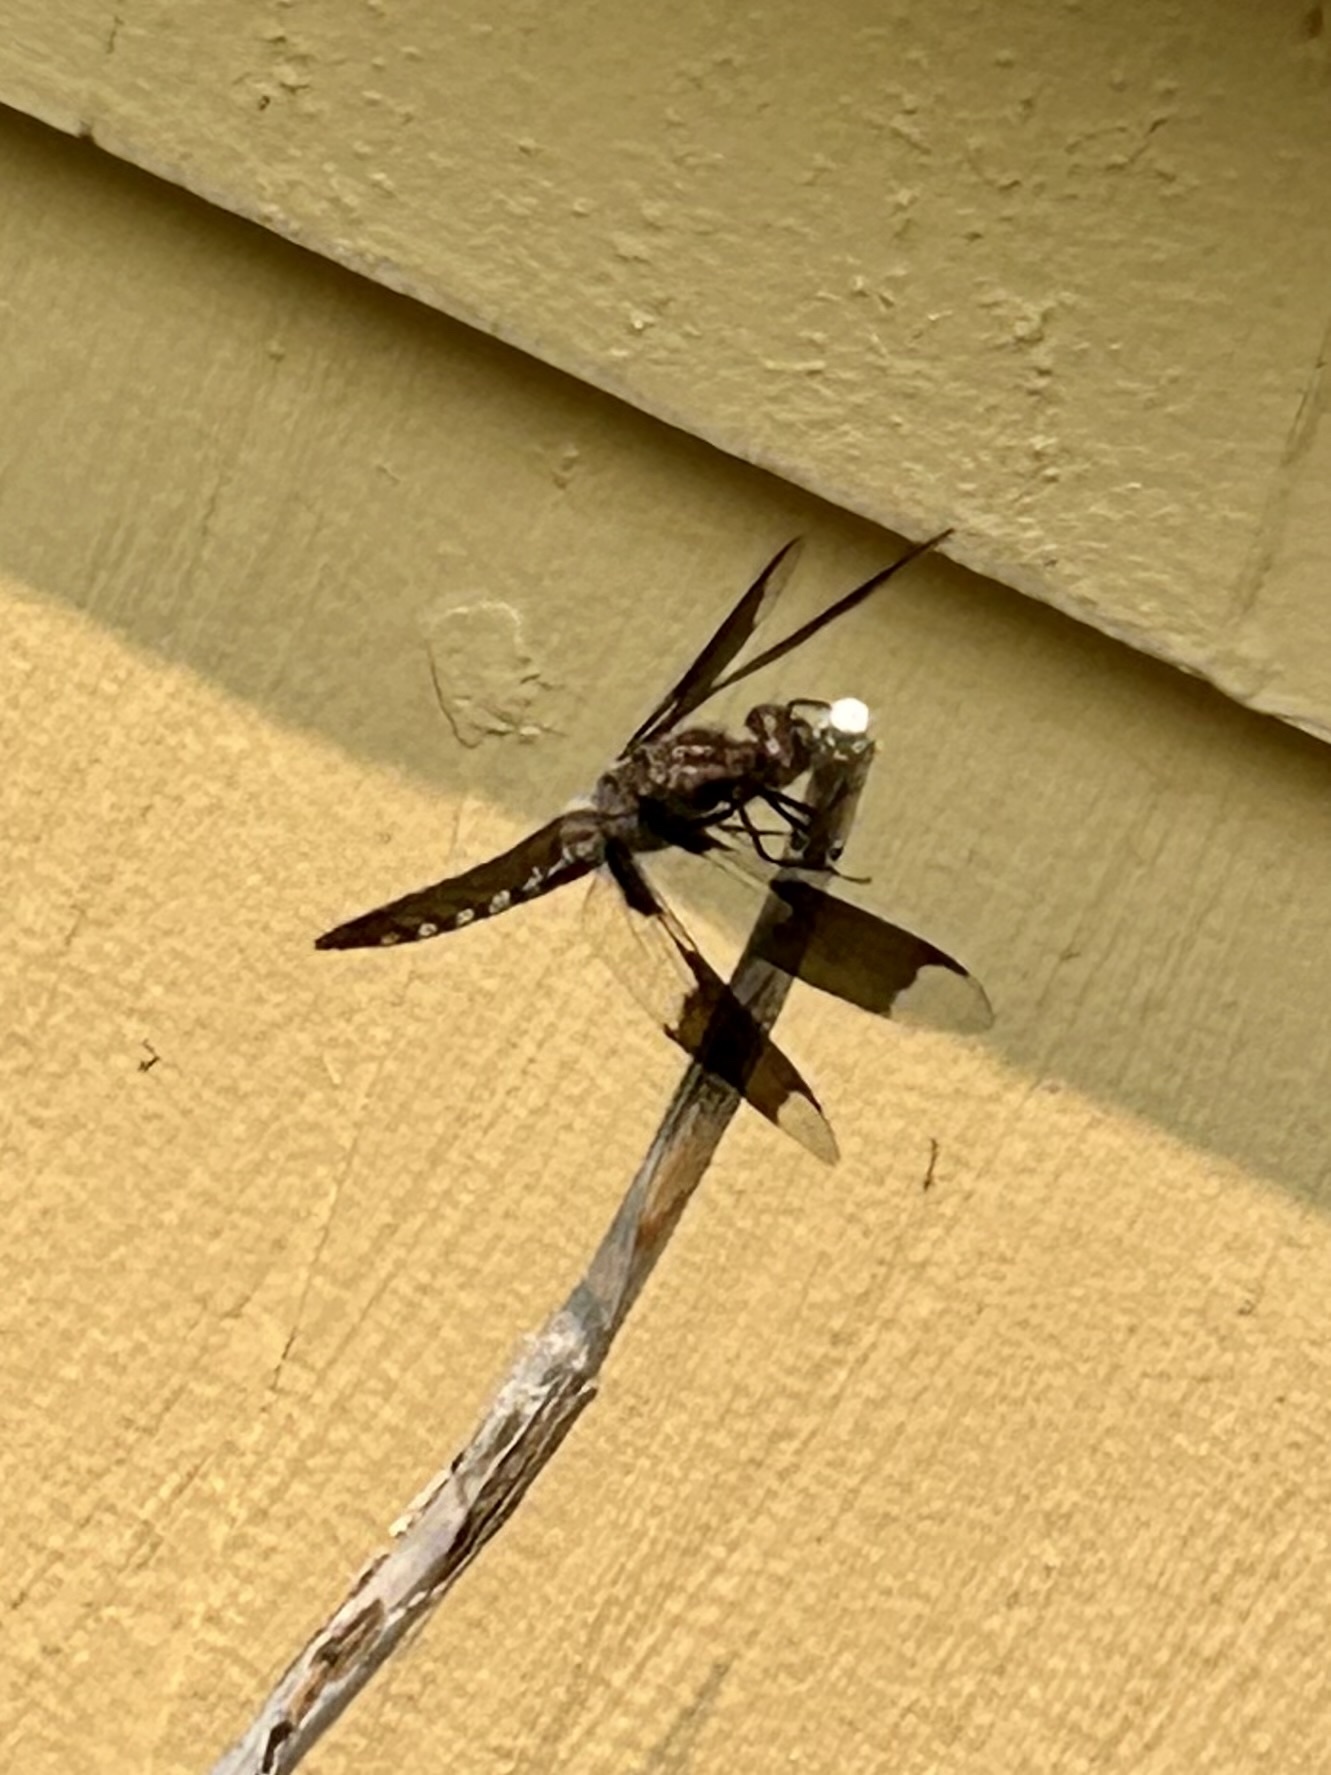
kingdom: Animalia
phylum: Arthropoda
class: Insecta
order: Odonata
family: Libellulidae
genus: Plathemis
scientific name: Plathemis lydia
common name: Common whitetail
